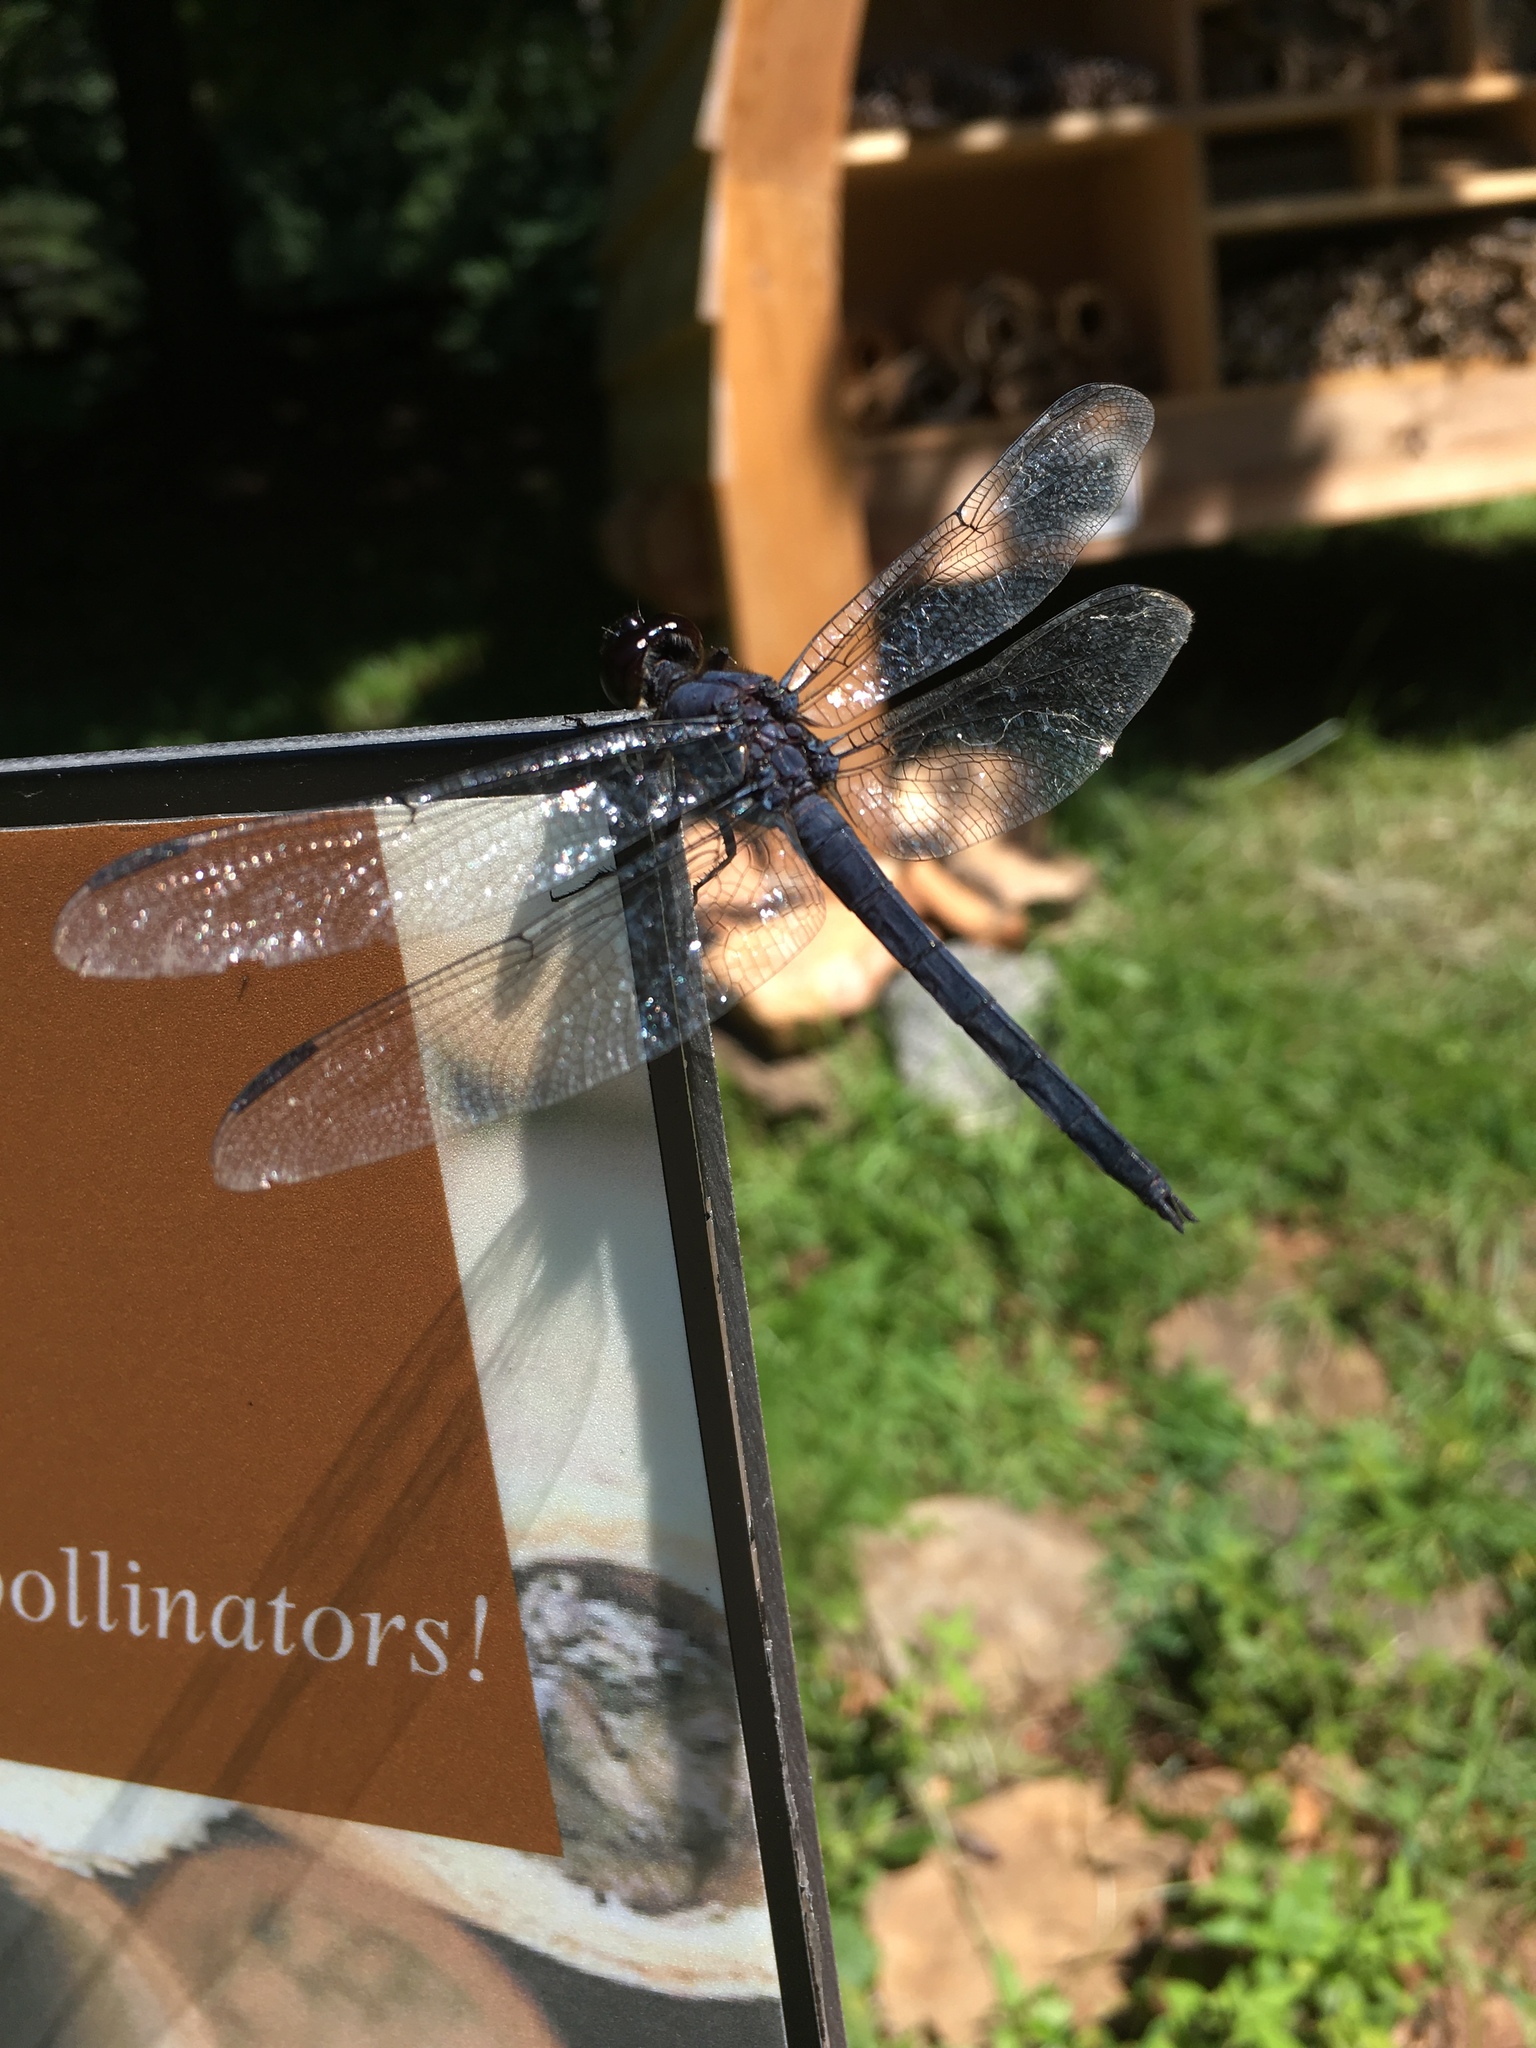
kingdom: Animalia
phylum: Arthropoda
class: Insecta
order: Odonata
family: Libellulidae
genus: Libellula
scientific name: Libellula incesta
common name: Slaty skimmer
